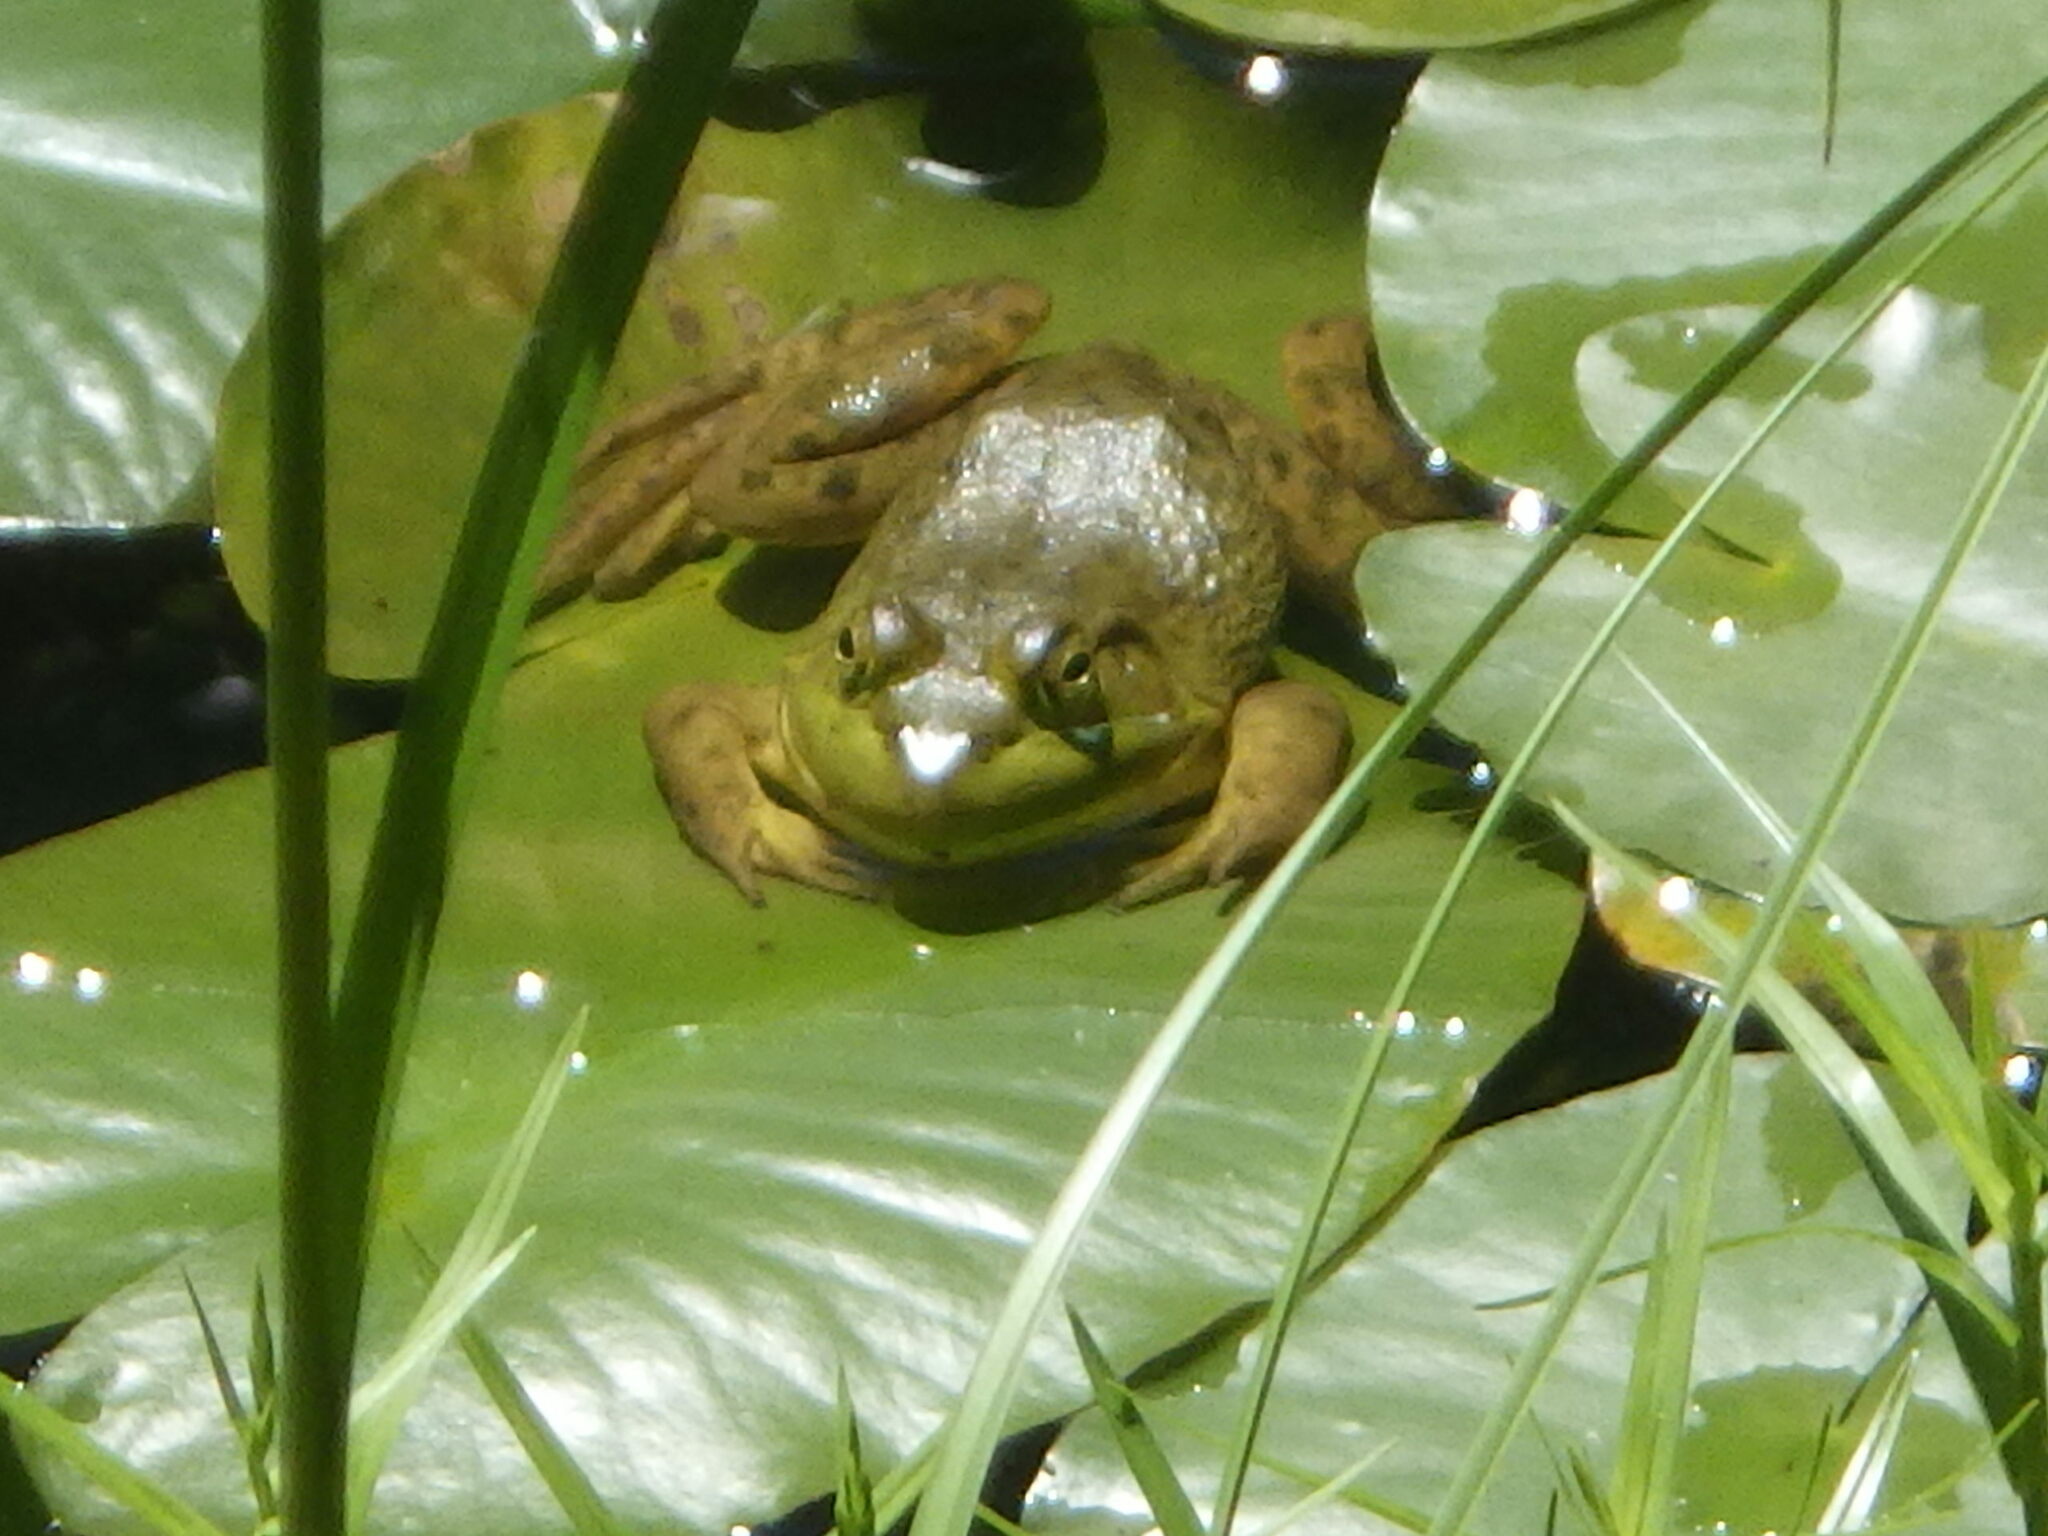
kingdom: Animalia
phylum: Chordata
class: Amphibia
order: Anura
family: Ranidae
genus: Lithobates
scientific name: Lithobates catesbeianus
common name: American bullfrog
